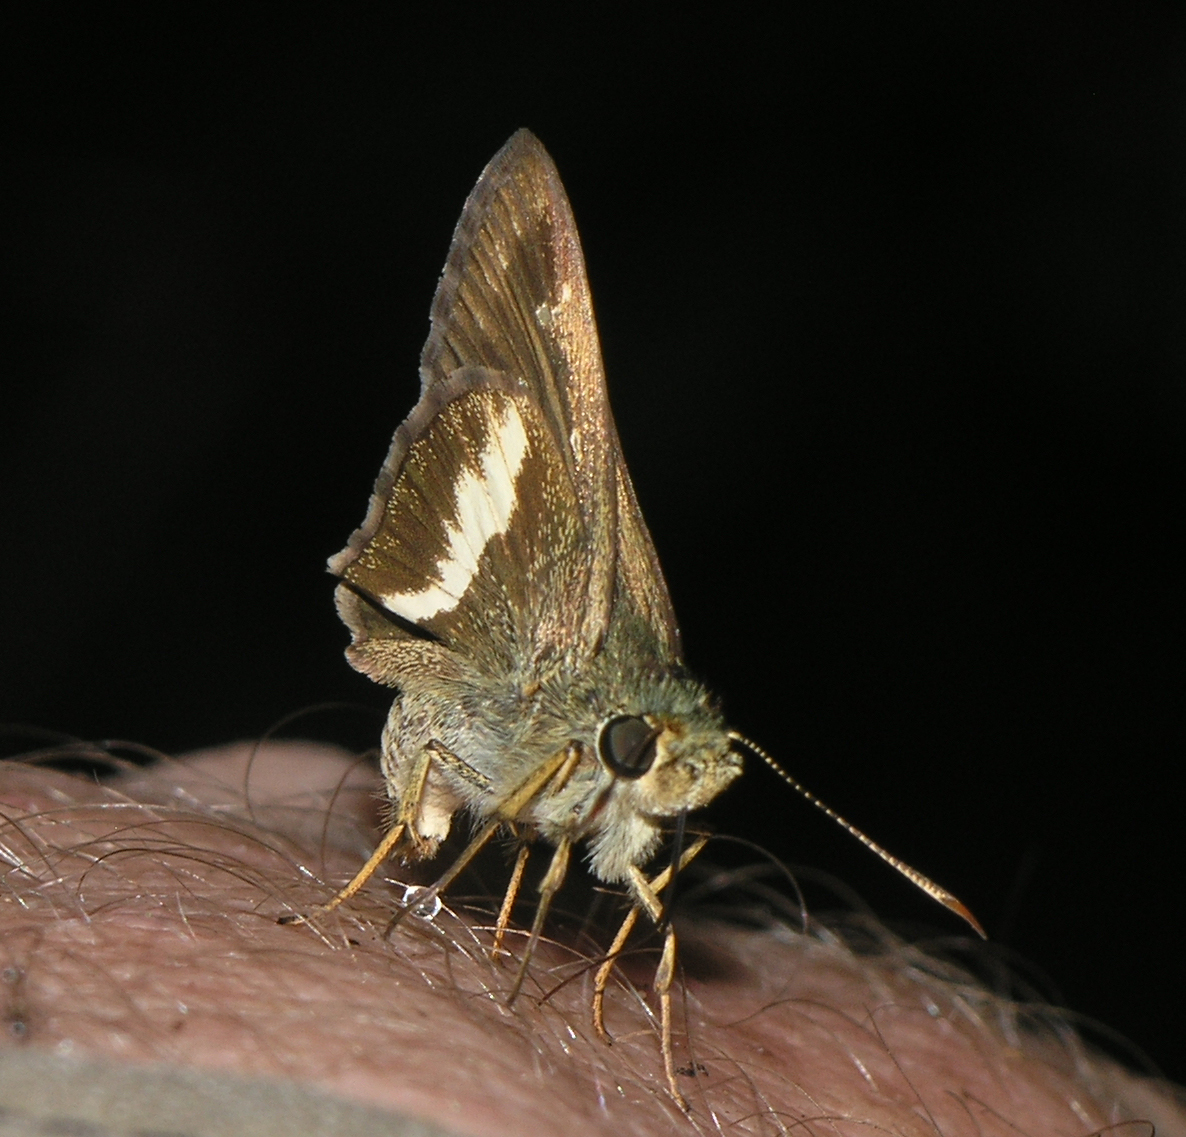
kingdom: Animalia
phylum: Arthropoda
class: Insecta
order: Lepidoptera
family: Hesperiidae
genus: Halpe
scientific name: Halpe zola
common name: Long-banded ace
